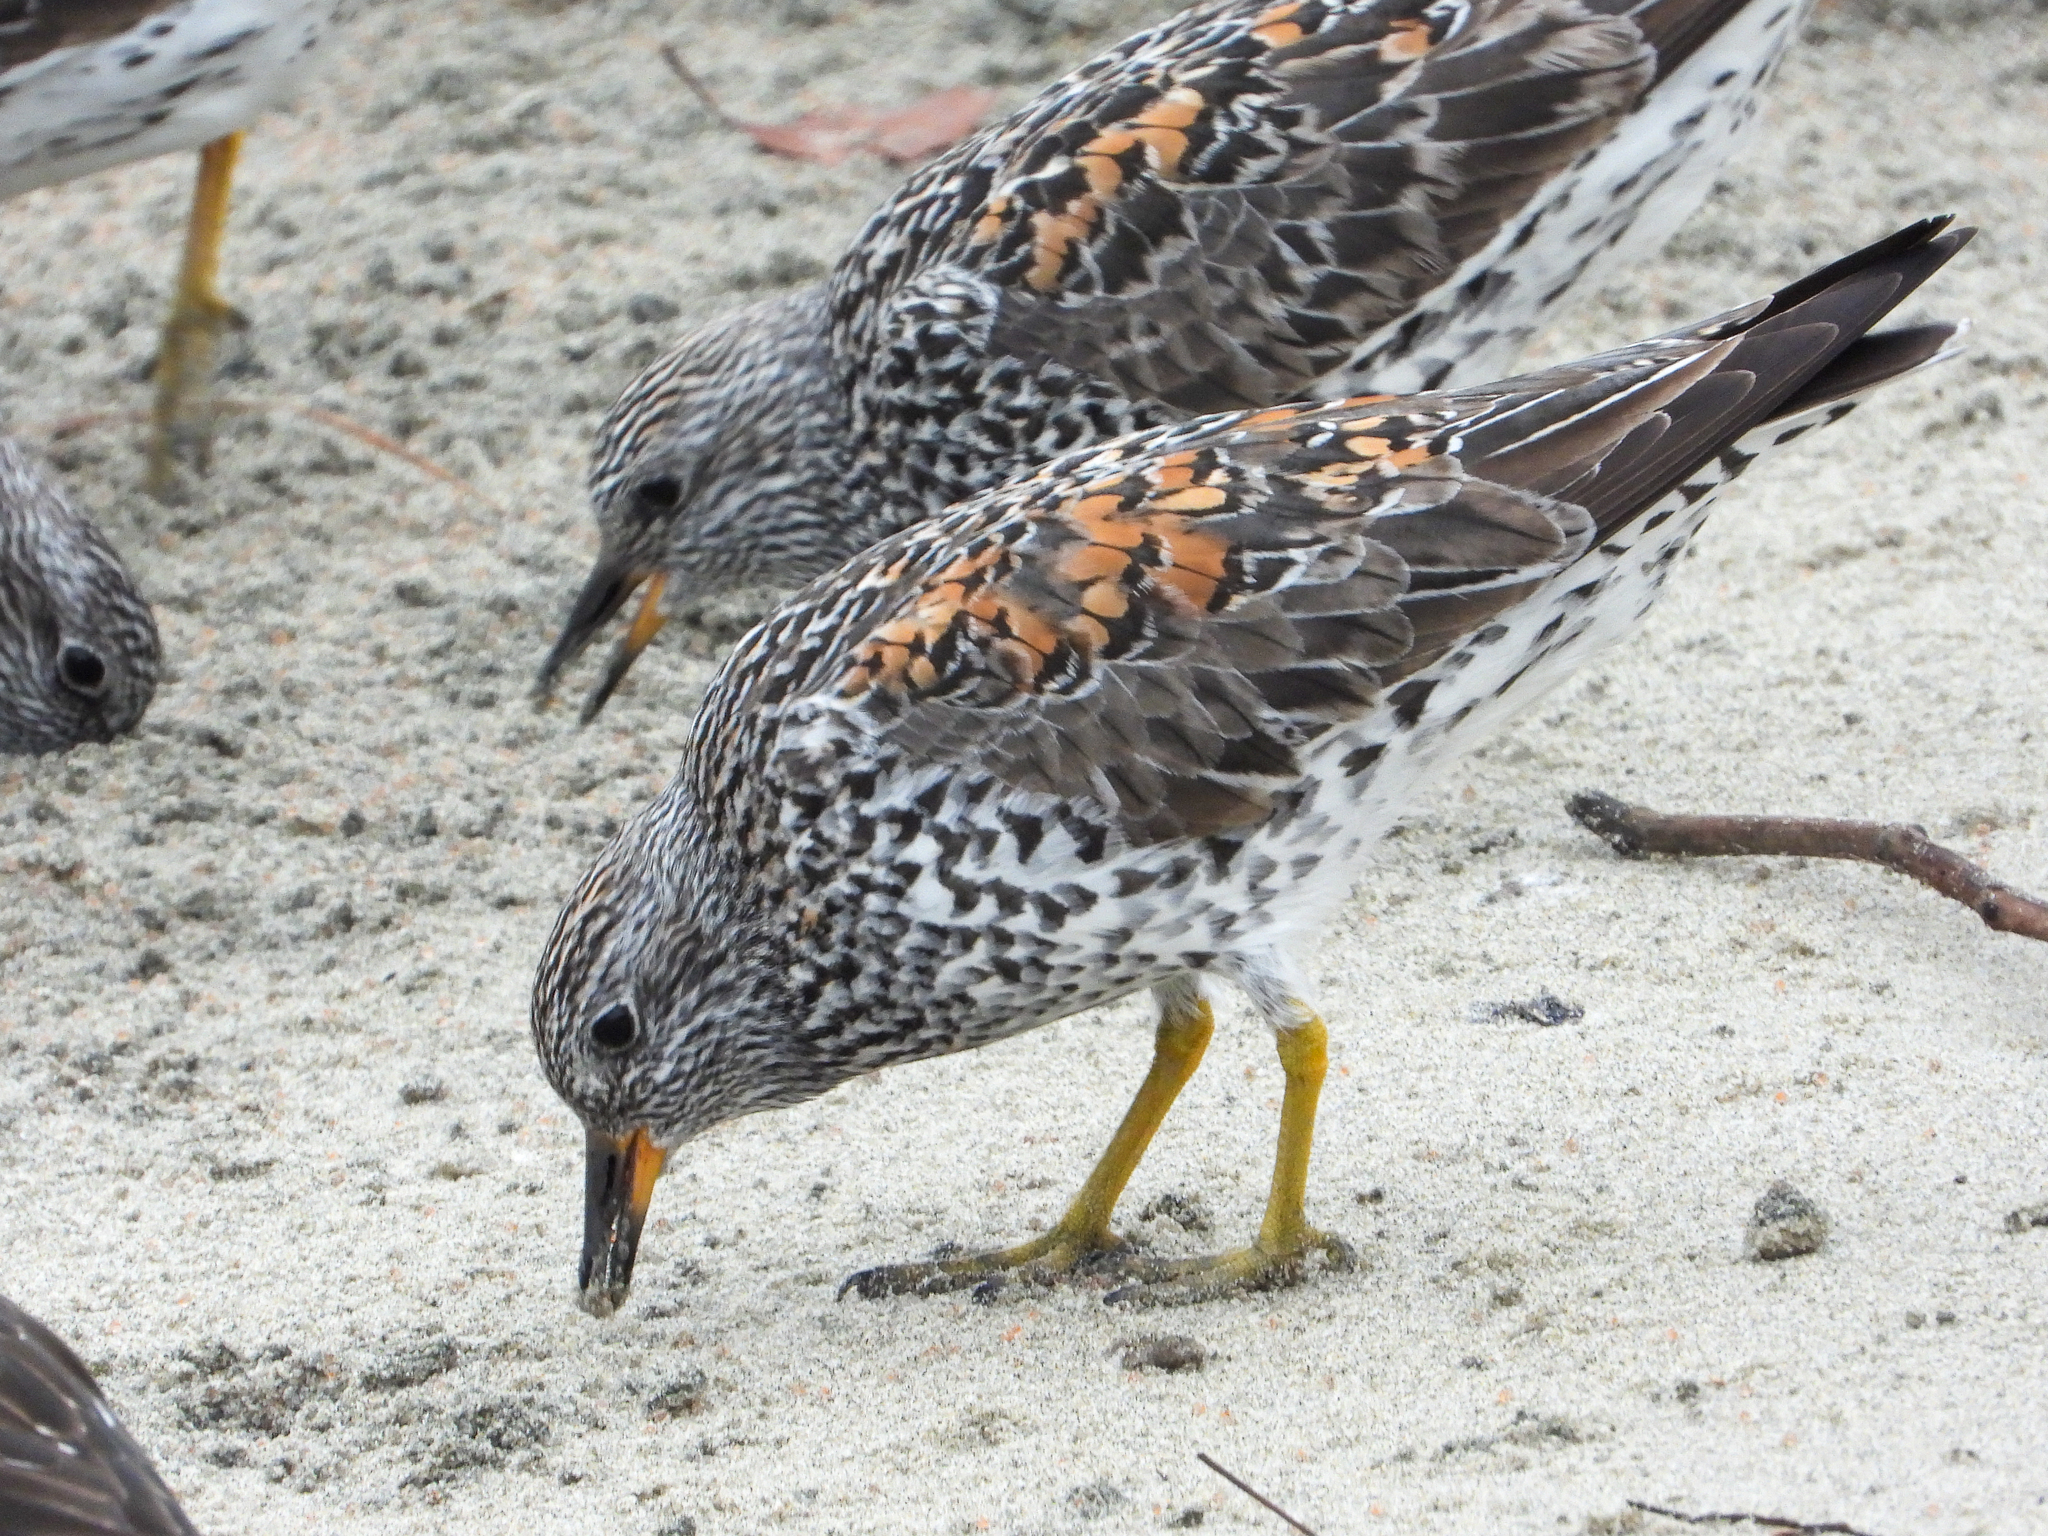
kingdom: Animalia
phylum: Chordata
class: Aves
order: Charadriiformes
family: Scolopacidae
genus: Calidris
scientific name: Calidris virgata
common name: Surfbird
